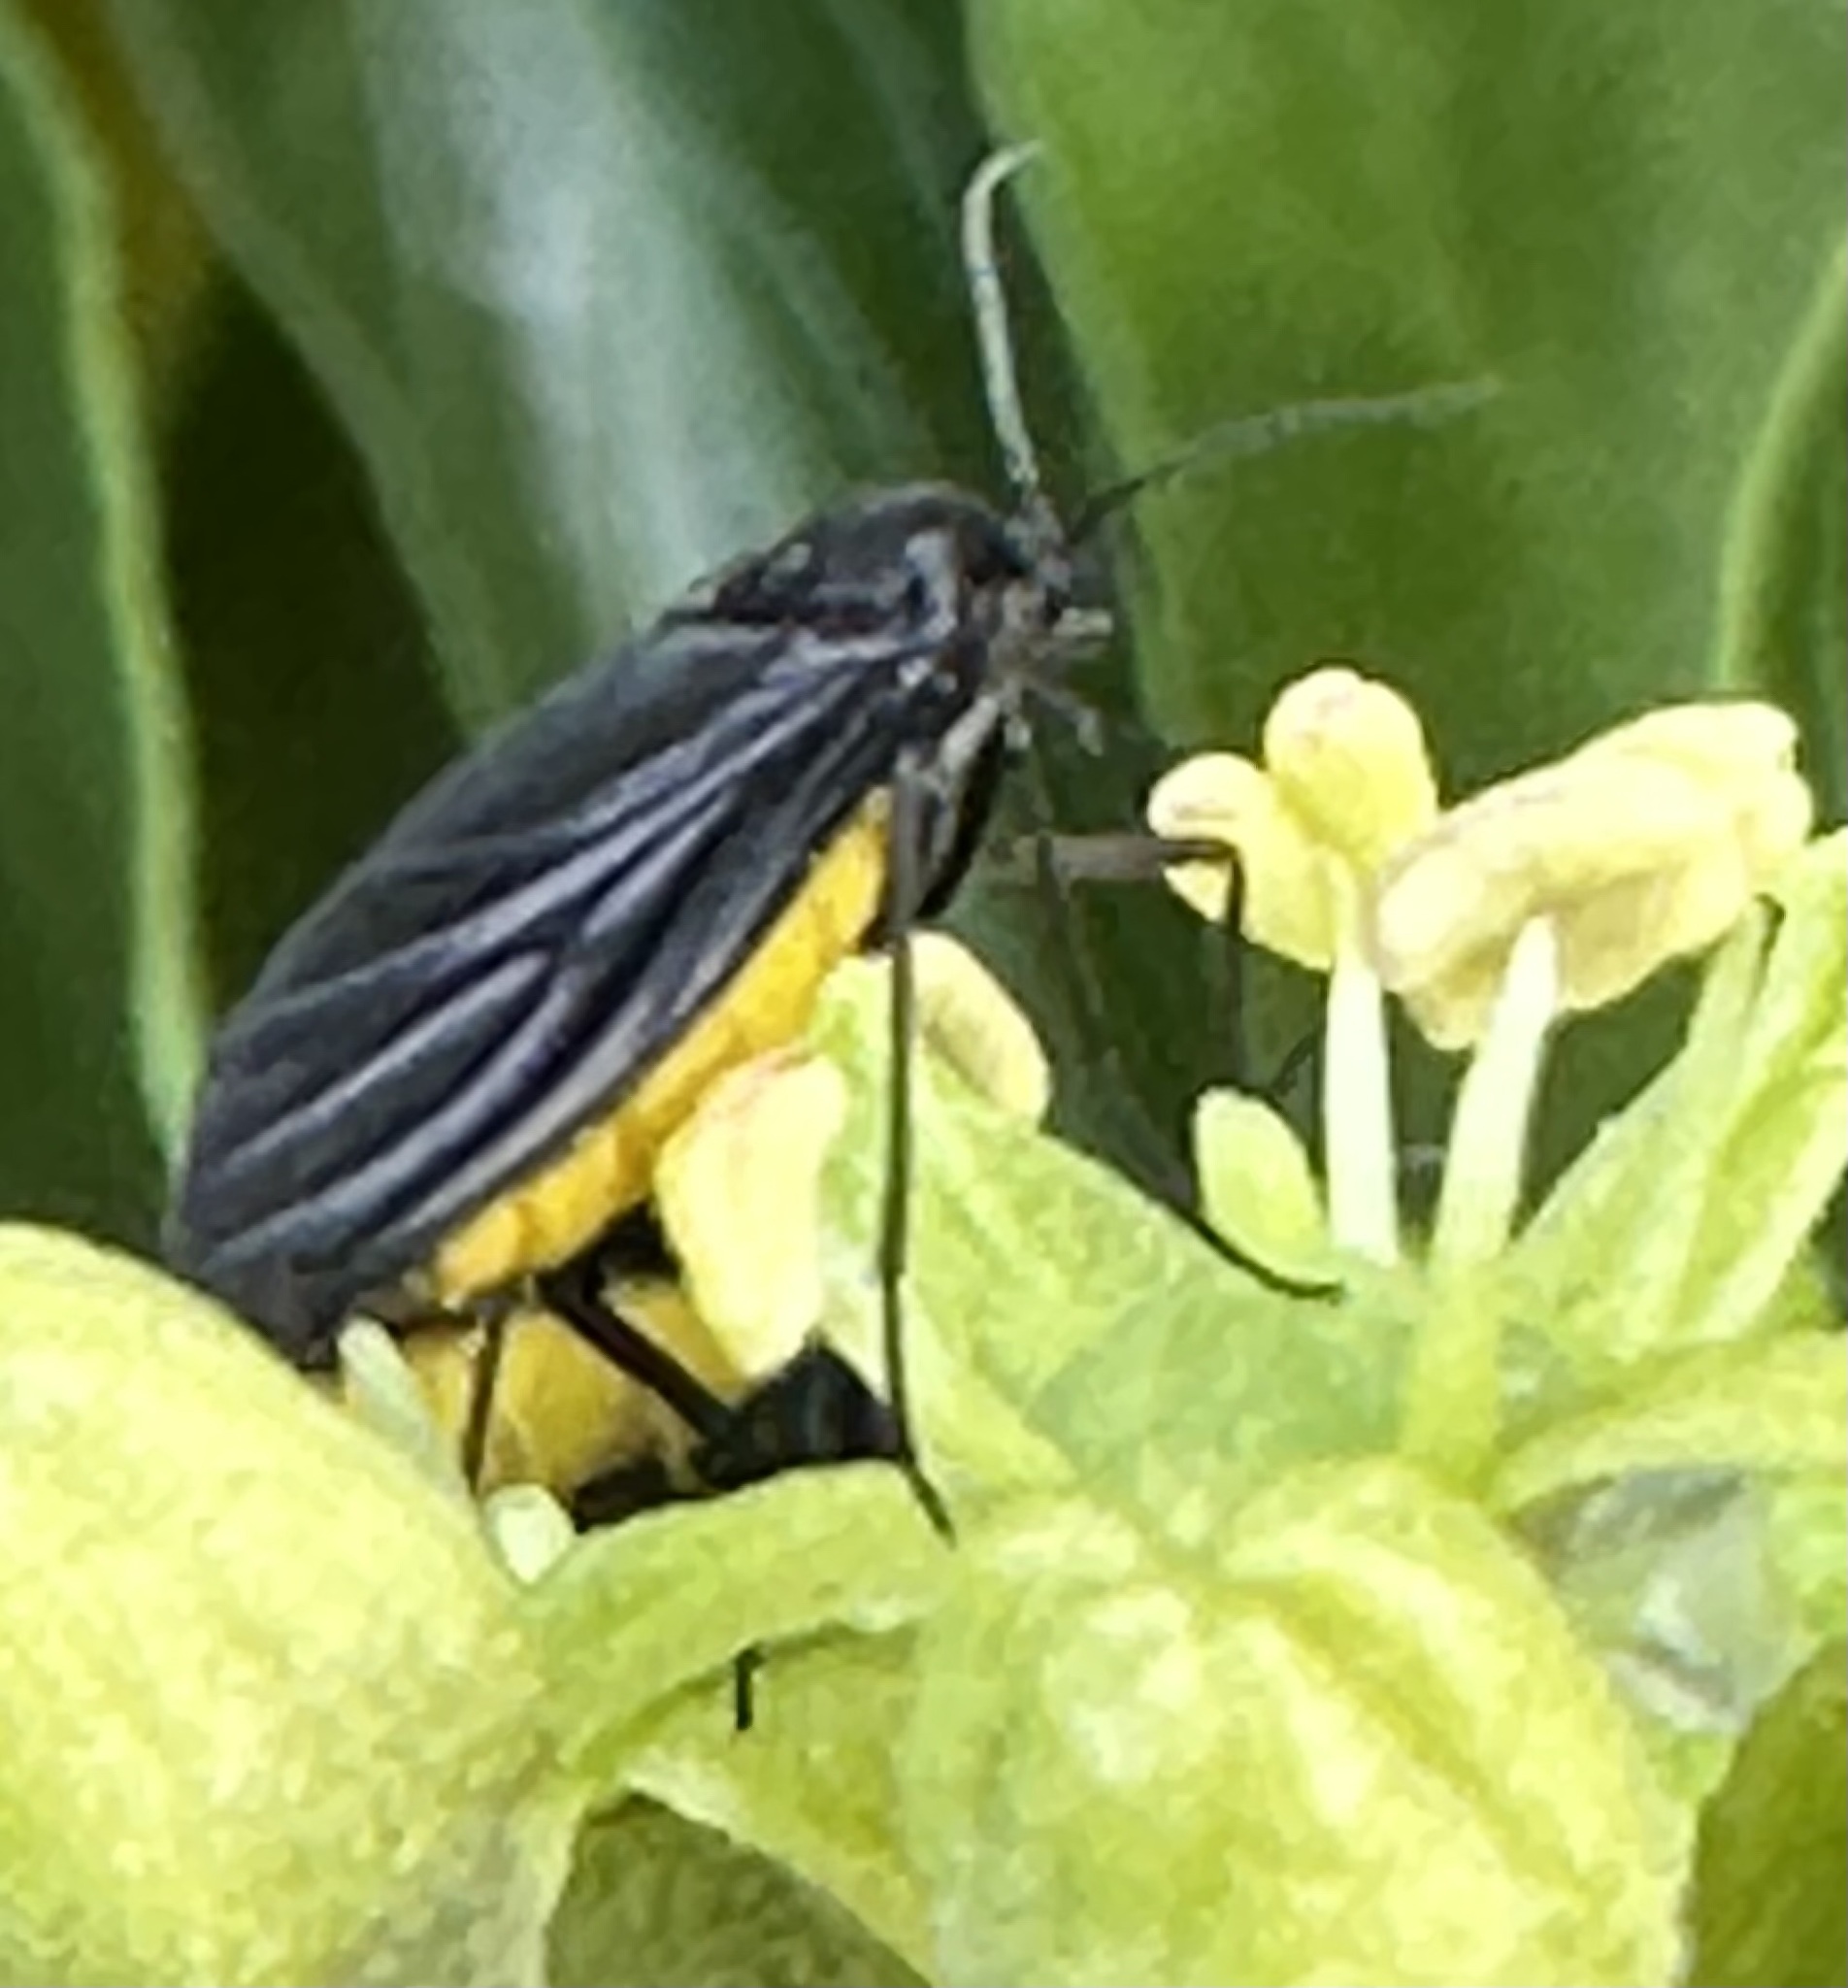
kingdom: Animalia
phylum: Arthropoda
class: Insecta
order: Diptera
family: Sciaridae
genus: Sciara
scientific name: Sciara hemerobioides
